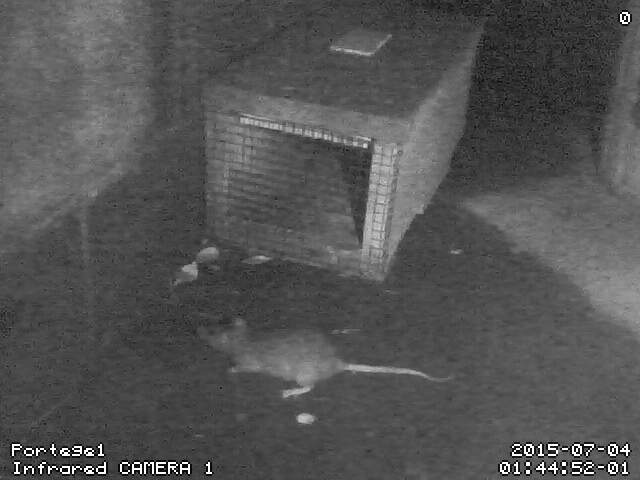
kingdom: Animalia
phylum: Chordata
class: Mammalia
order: Rodentia
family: Muridae
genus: Rattus
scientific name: Rattus norvegicus
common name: Brown rat
